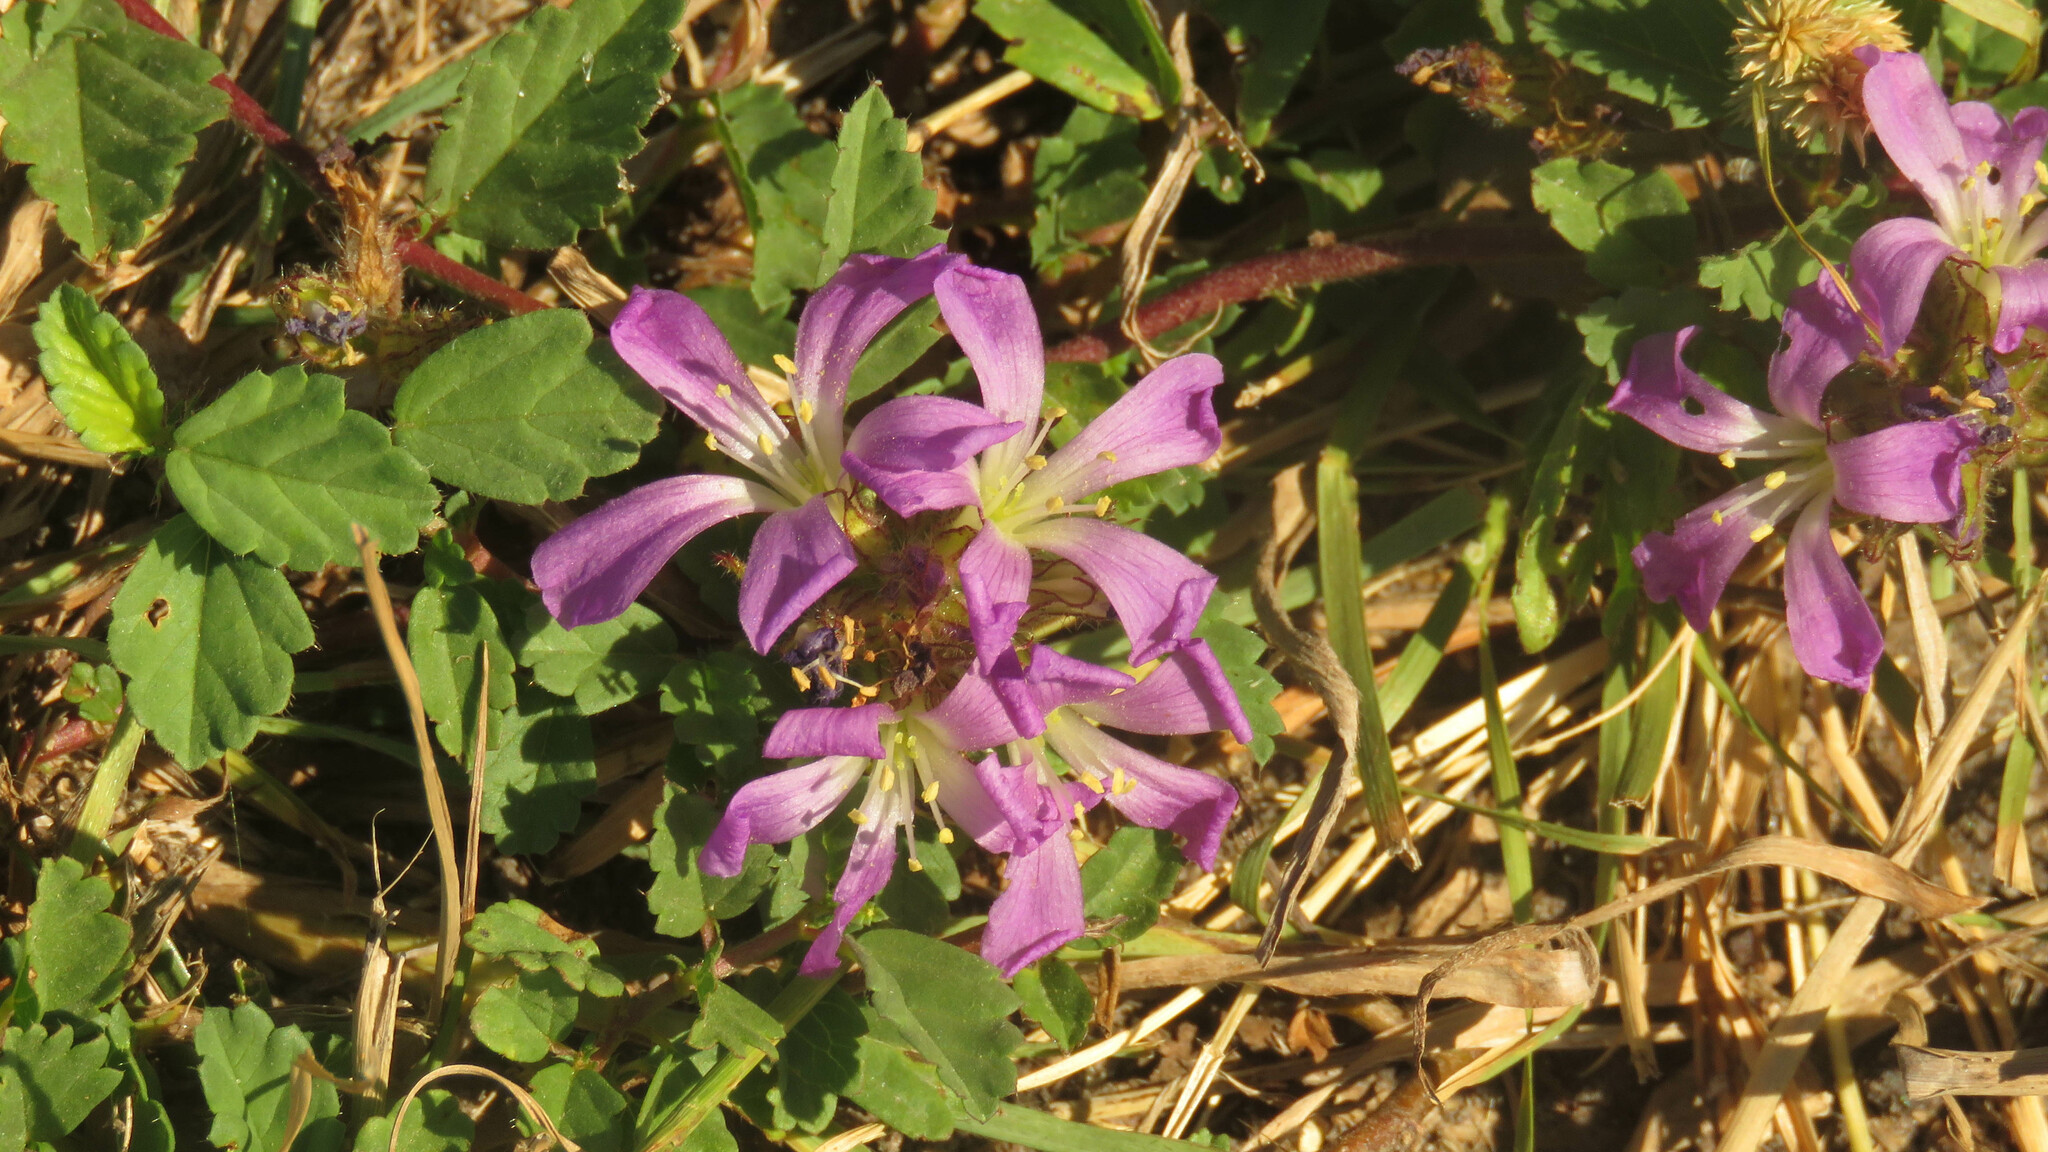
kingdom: Plantae
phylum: Tracheophyta
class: Magnoliopsida
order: Malvales
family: Malvaceae
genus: Melochia
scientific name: Melochia hermannioides
